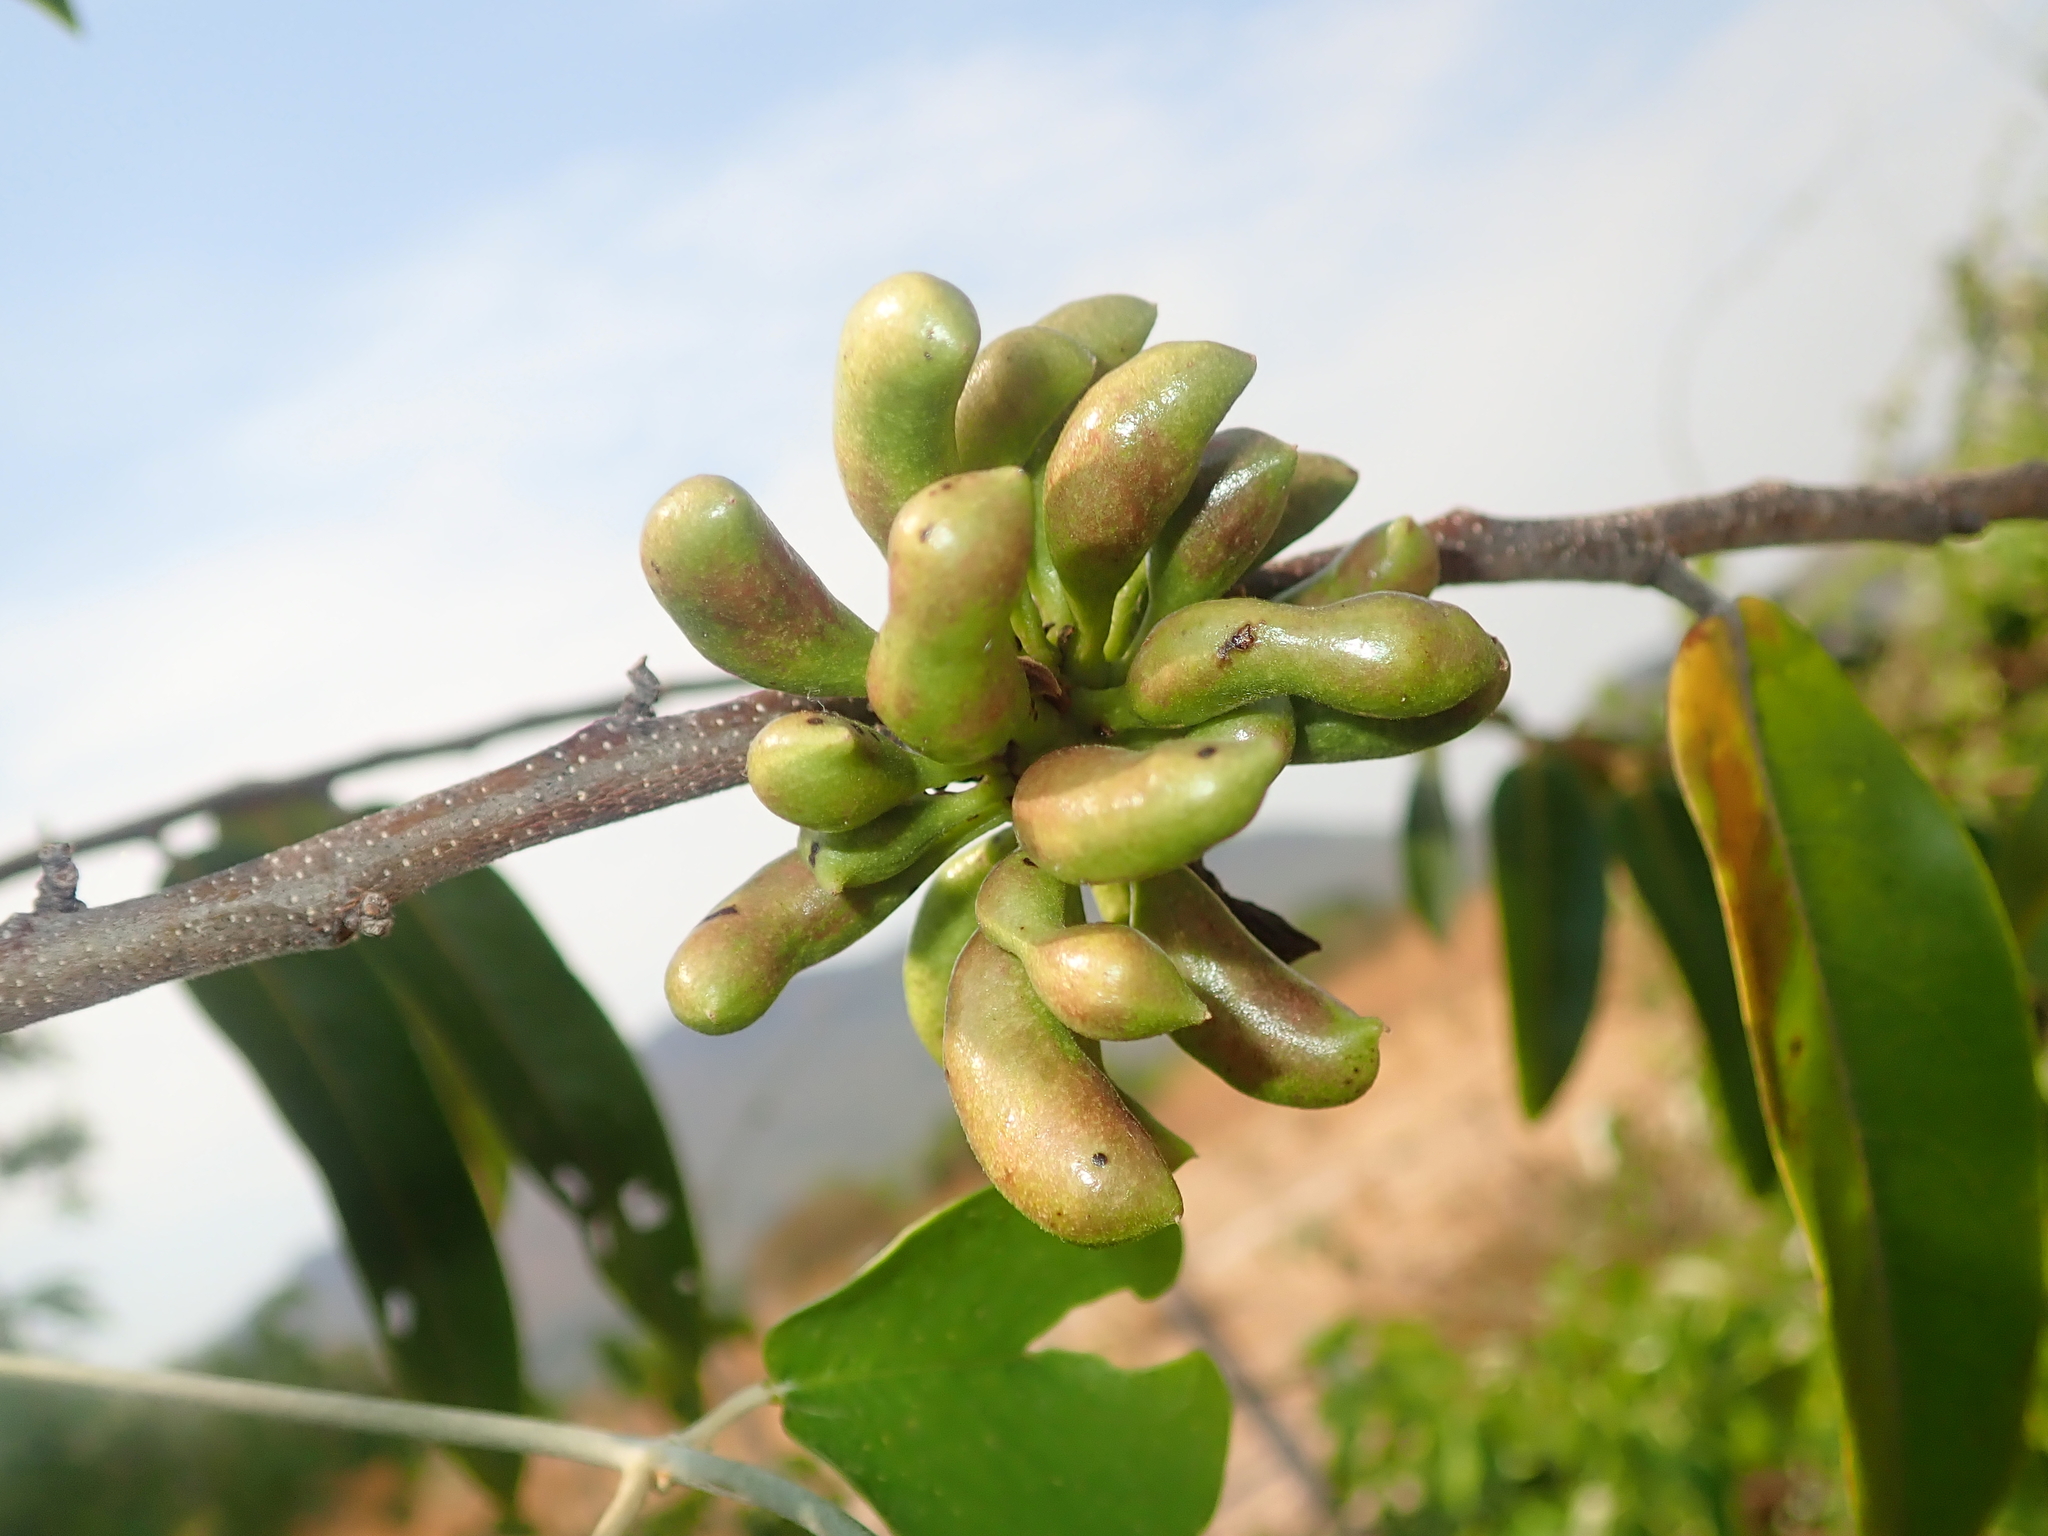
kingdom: Plantae
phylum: Tracheophyta
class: Magnoliopsida
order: Magnoliales
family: Annonaceae
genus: Xylopia
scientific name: Xylopia aromatica
